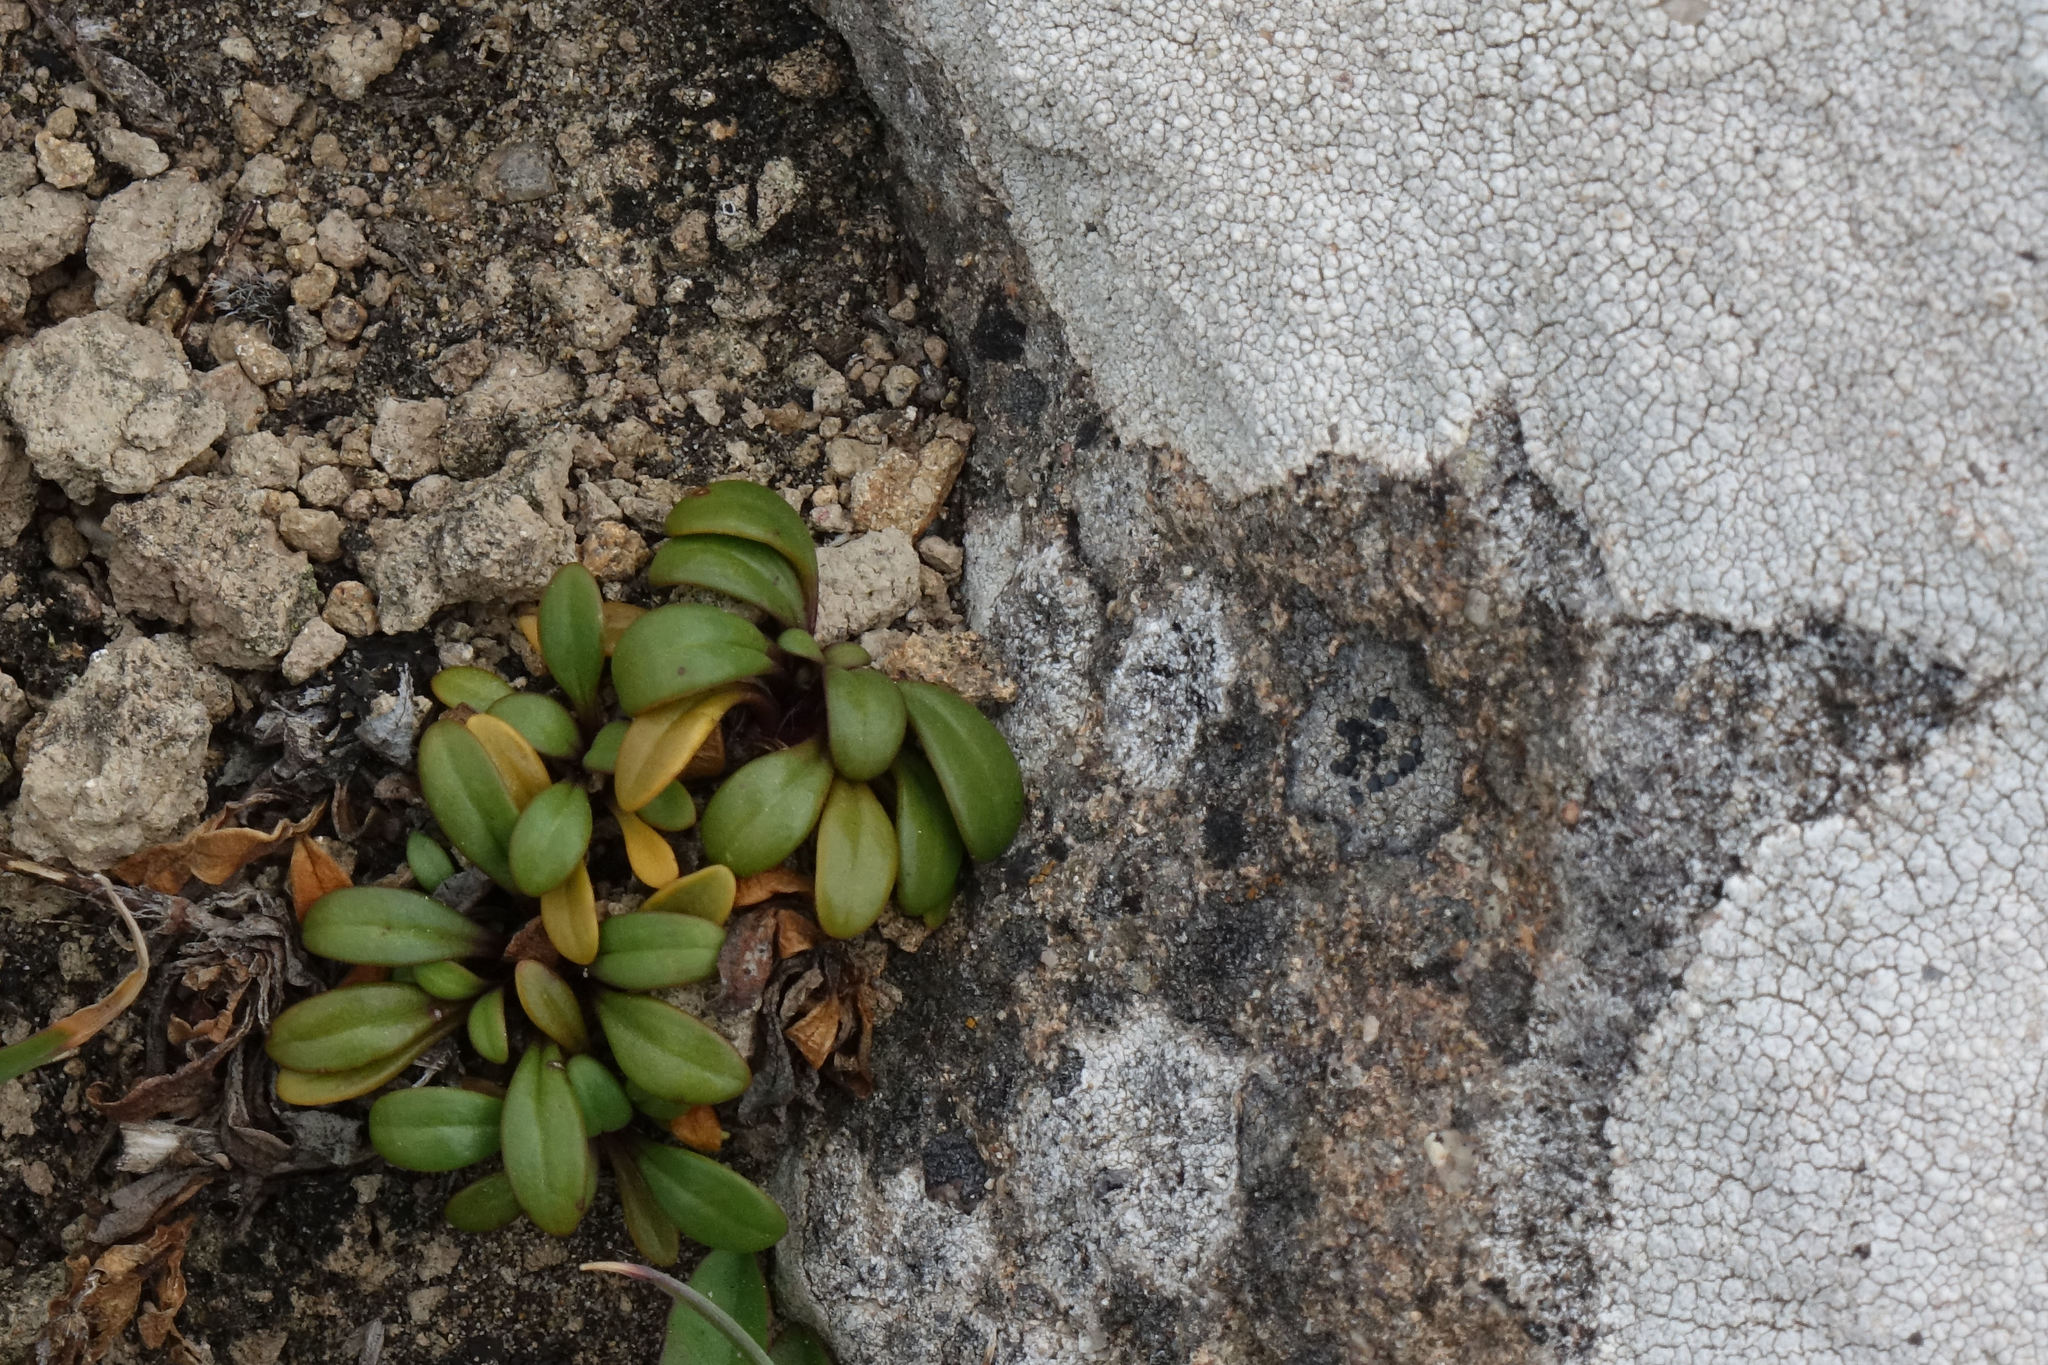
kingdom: Plantae
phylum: Tracheophyta
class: Magnoliopsida
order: Gentianales
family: Gentianaceae
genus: Gentianella
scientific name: Gentianella saxosa
